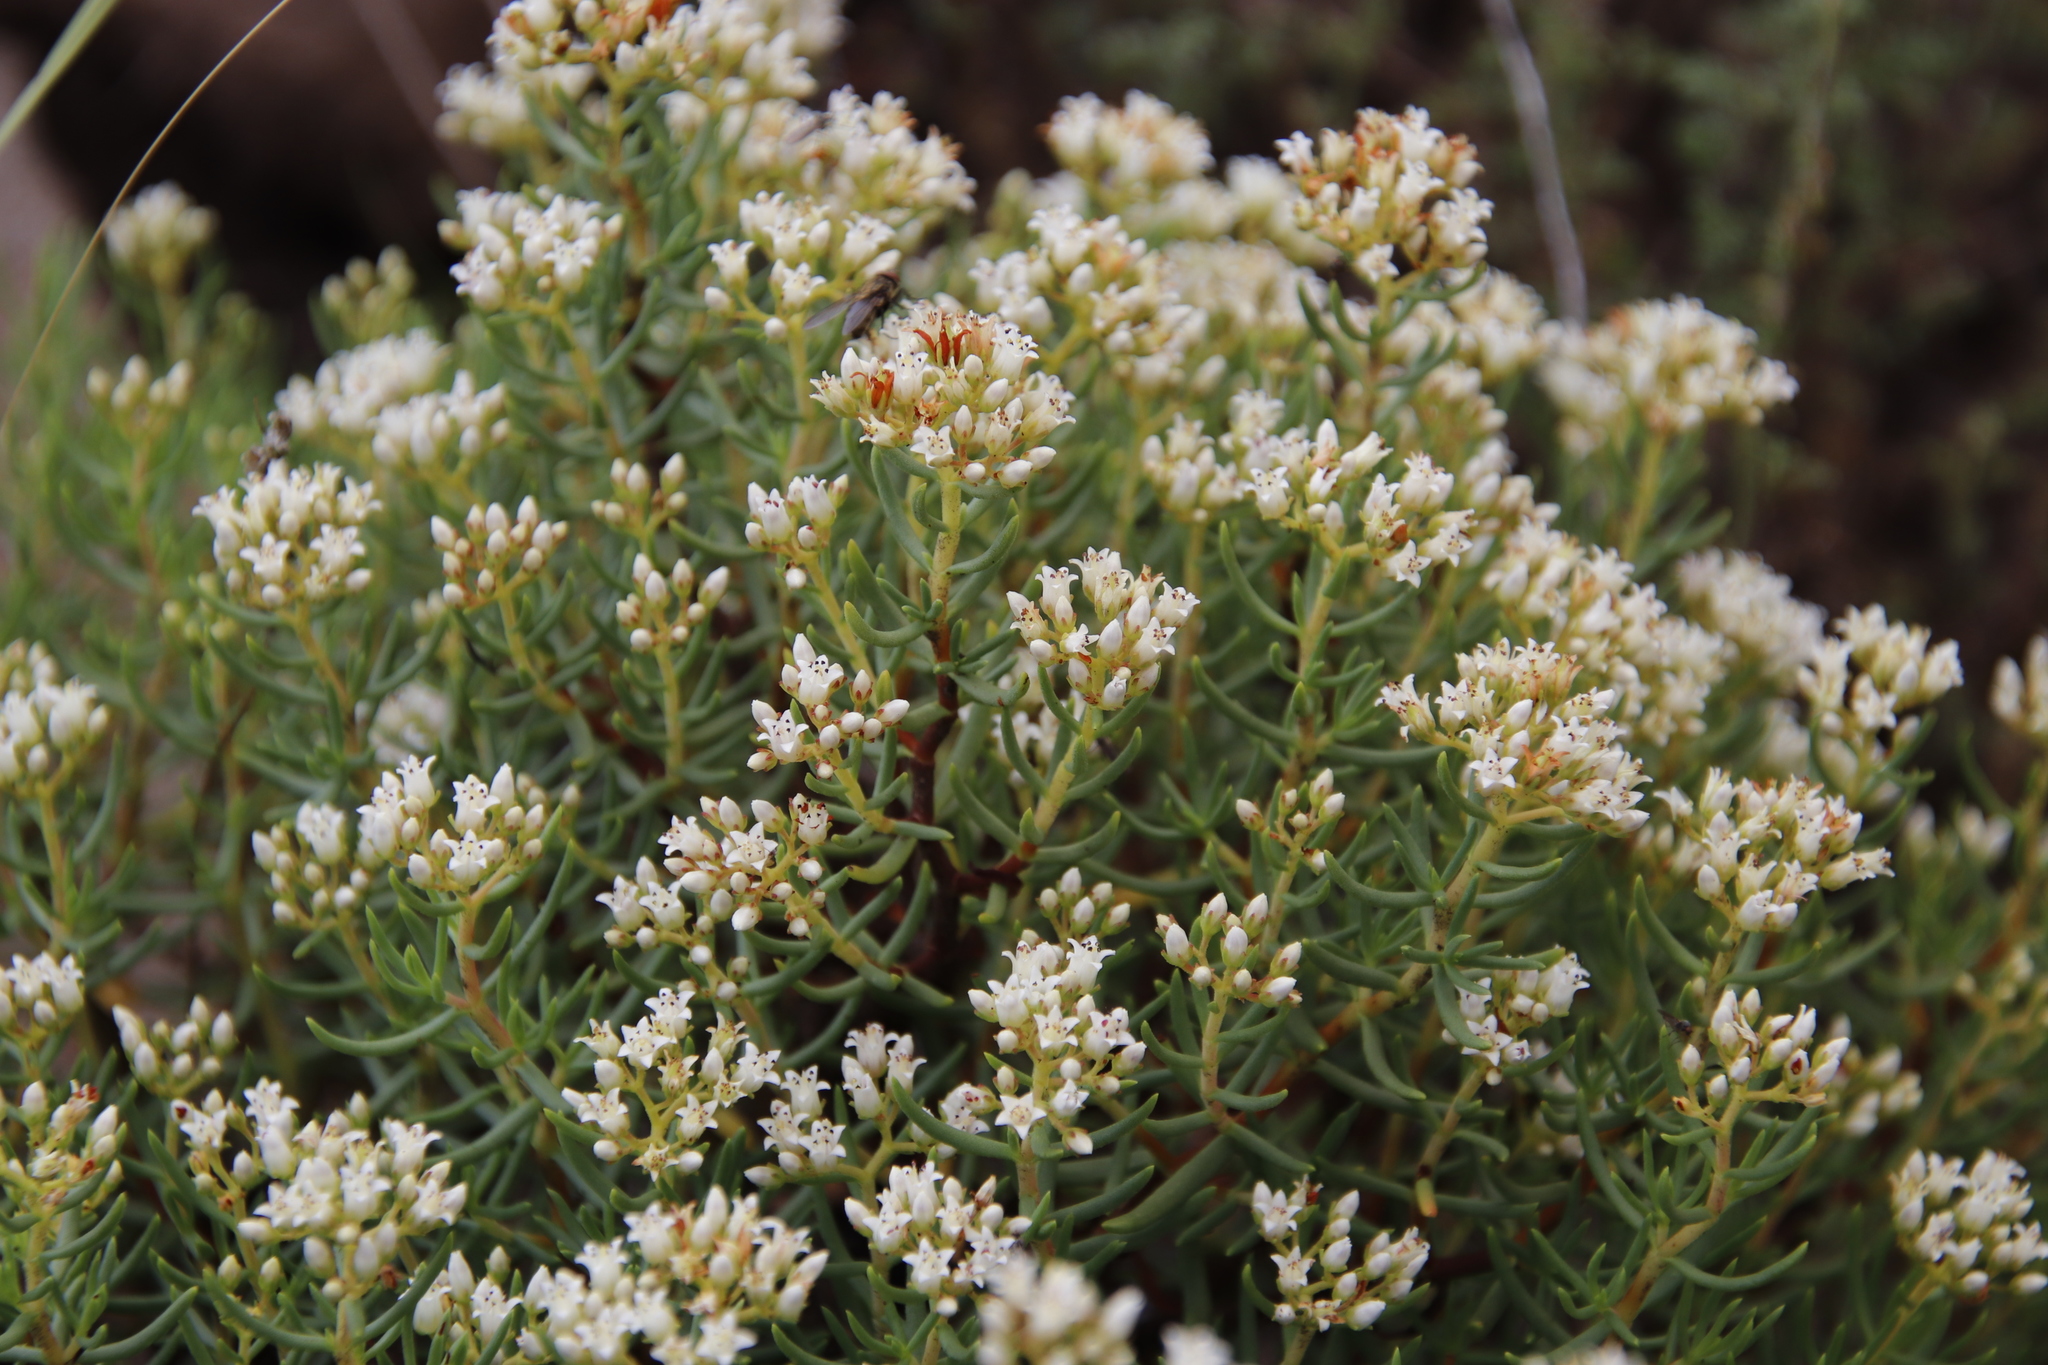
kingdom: Plantae
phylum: Tracheophyta
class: Magnoliopsida
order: Saxifragales
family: Crassulaceae
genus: Crassula
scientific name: Crassula sarcocaulis
